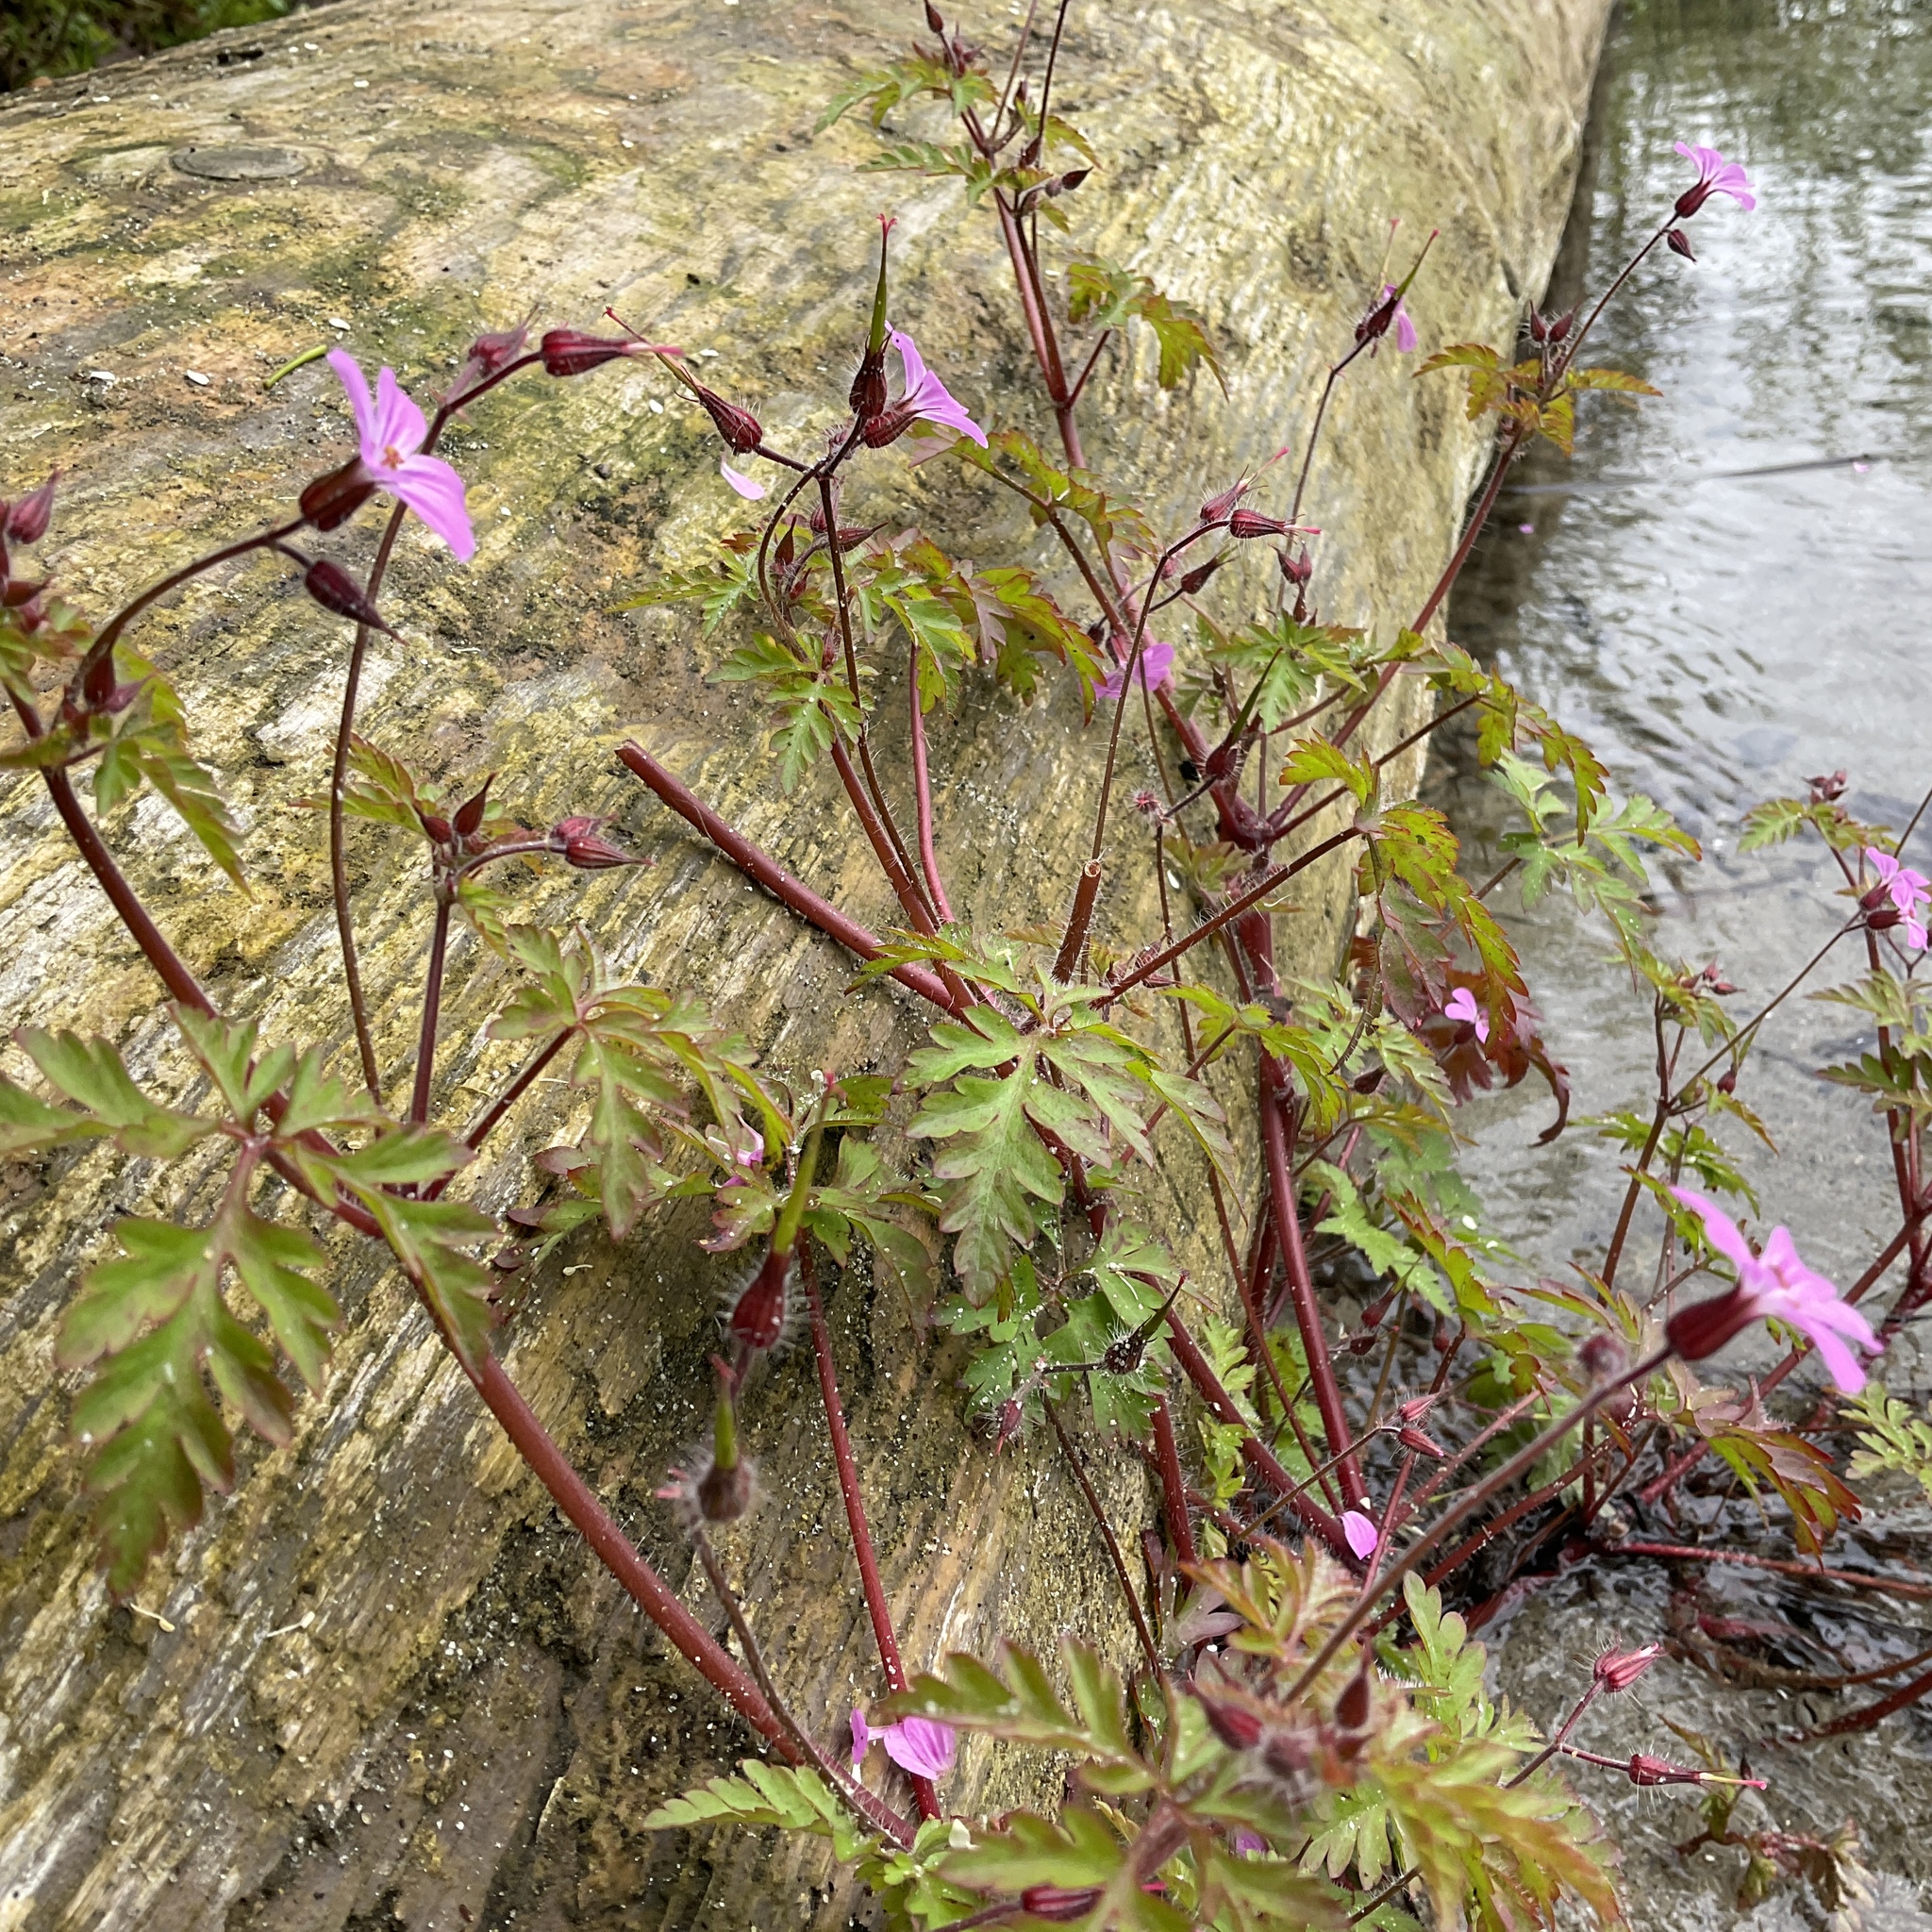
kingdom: Plantae
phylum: Tracheophyta
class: Magnoliopsida
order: Geraniales
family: Geraniaceae
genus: Geranium
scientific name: Geranium robertianum
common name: Herb-robert
